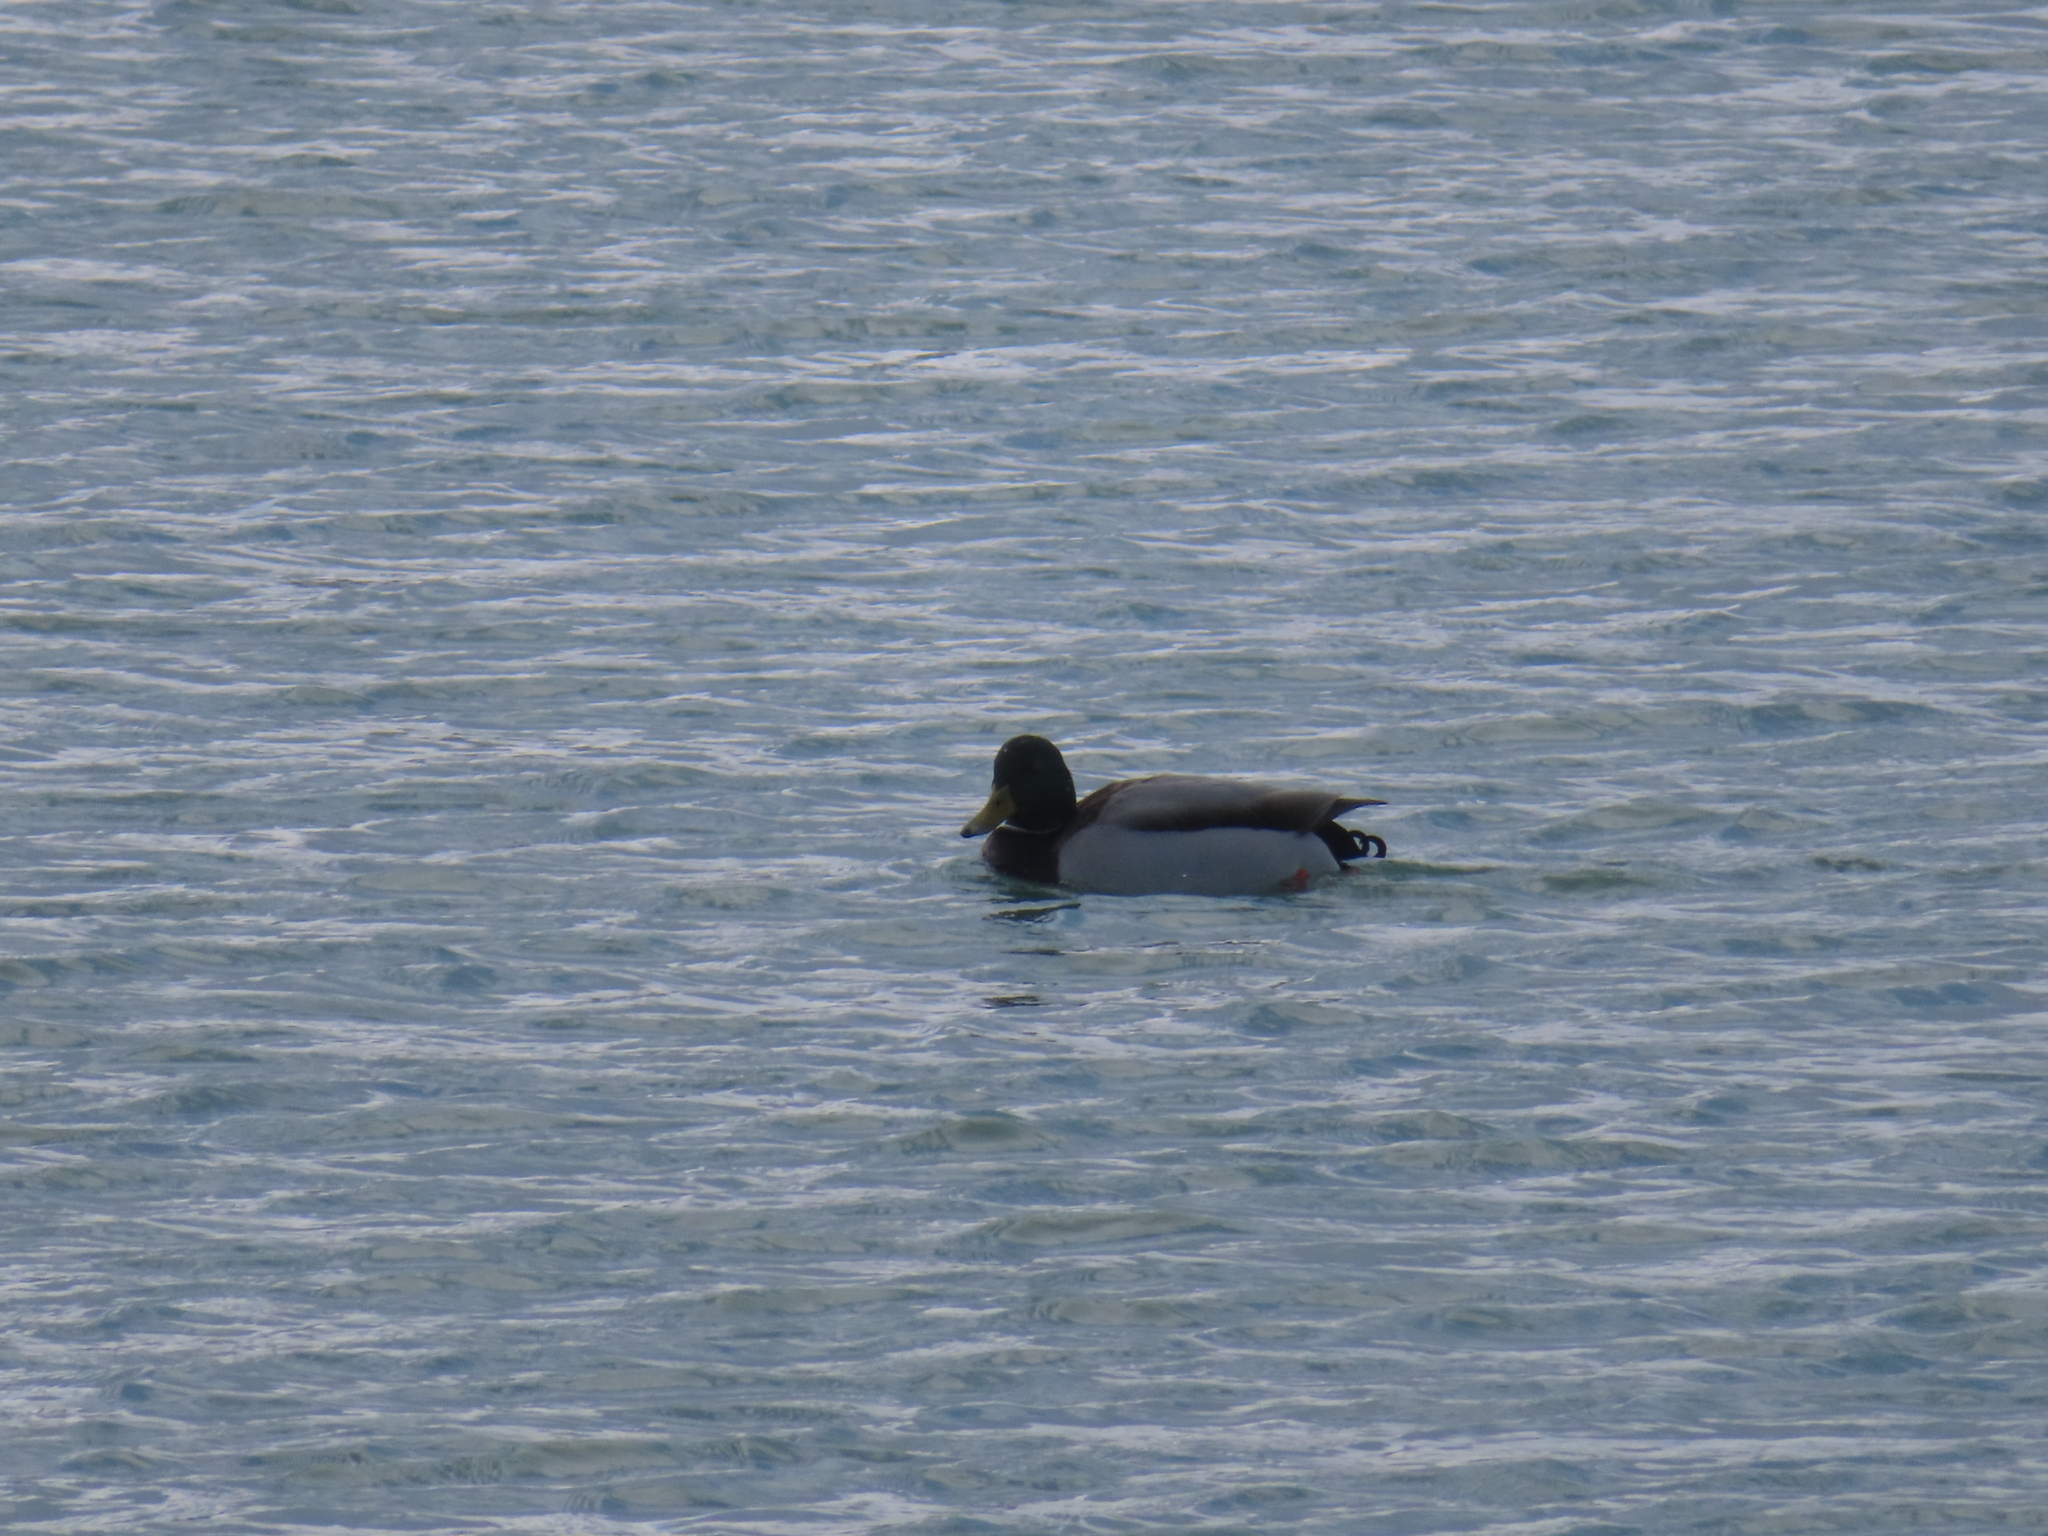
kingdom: Animalia
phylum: Chordata
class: Aves
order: Anseriformes
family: Anatidae
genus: Anas
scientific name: Anas platyrhynchos
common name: Mallard
